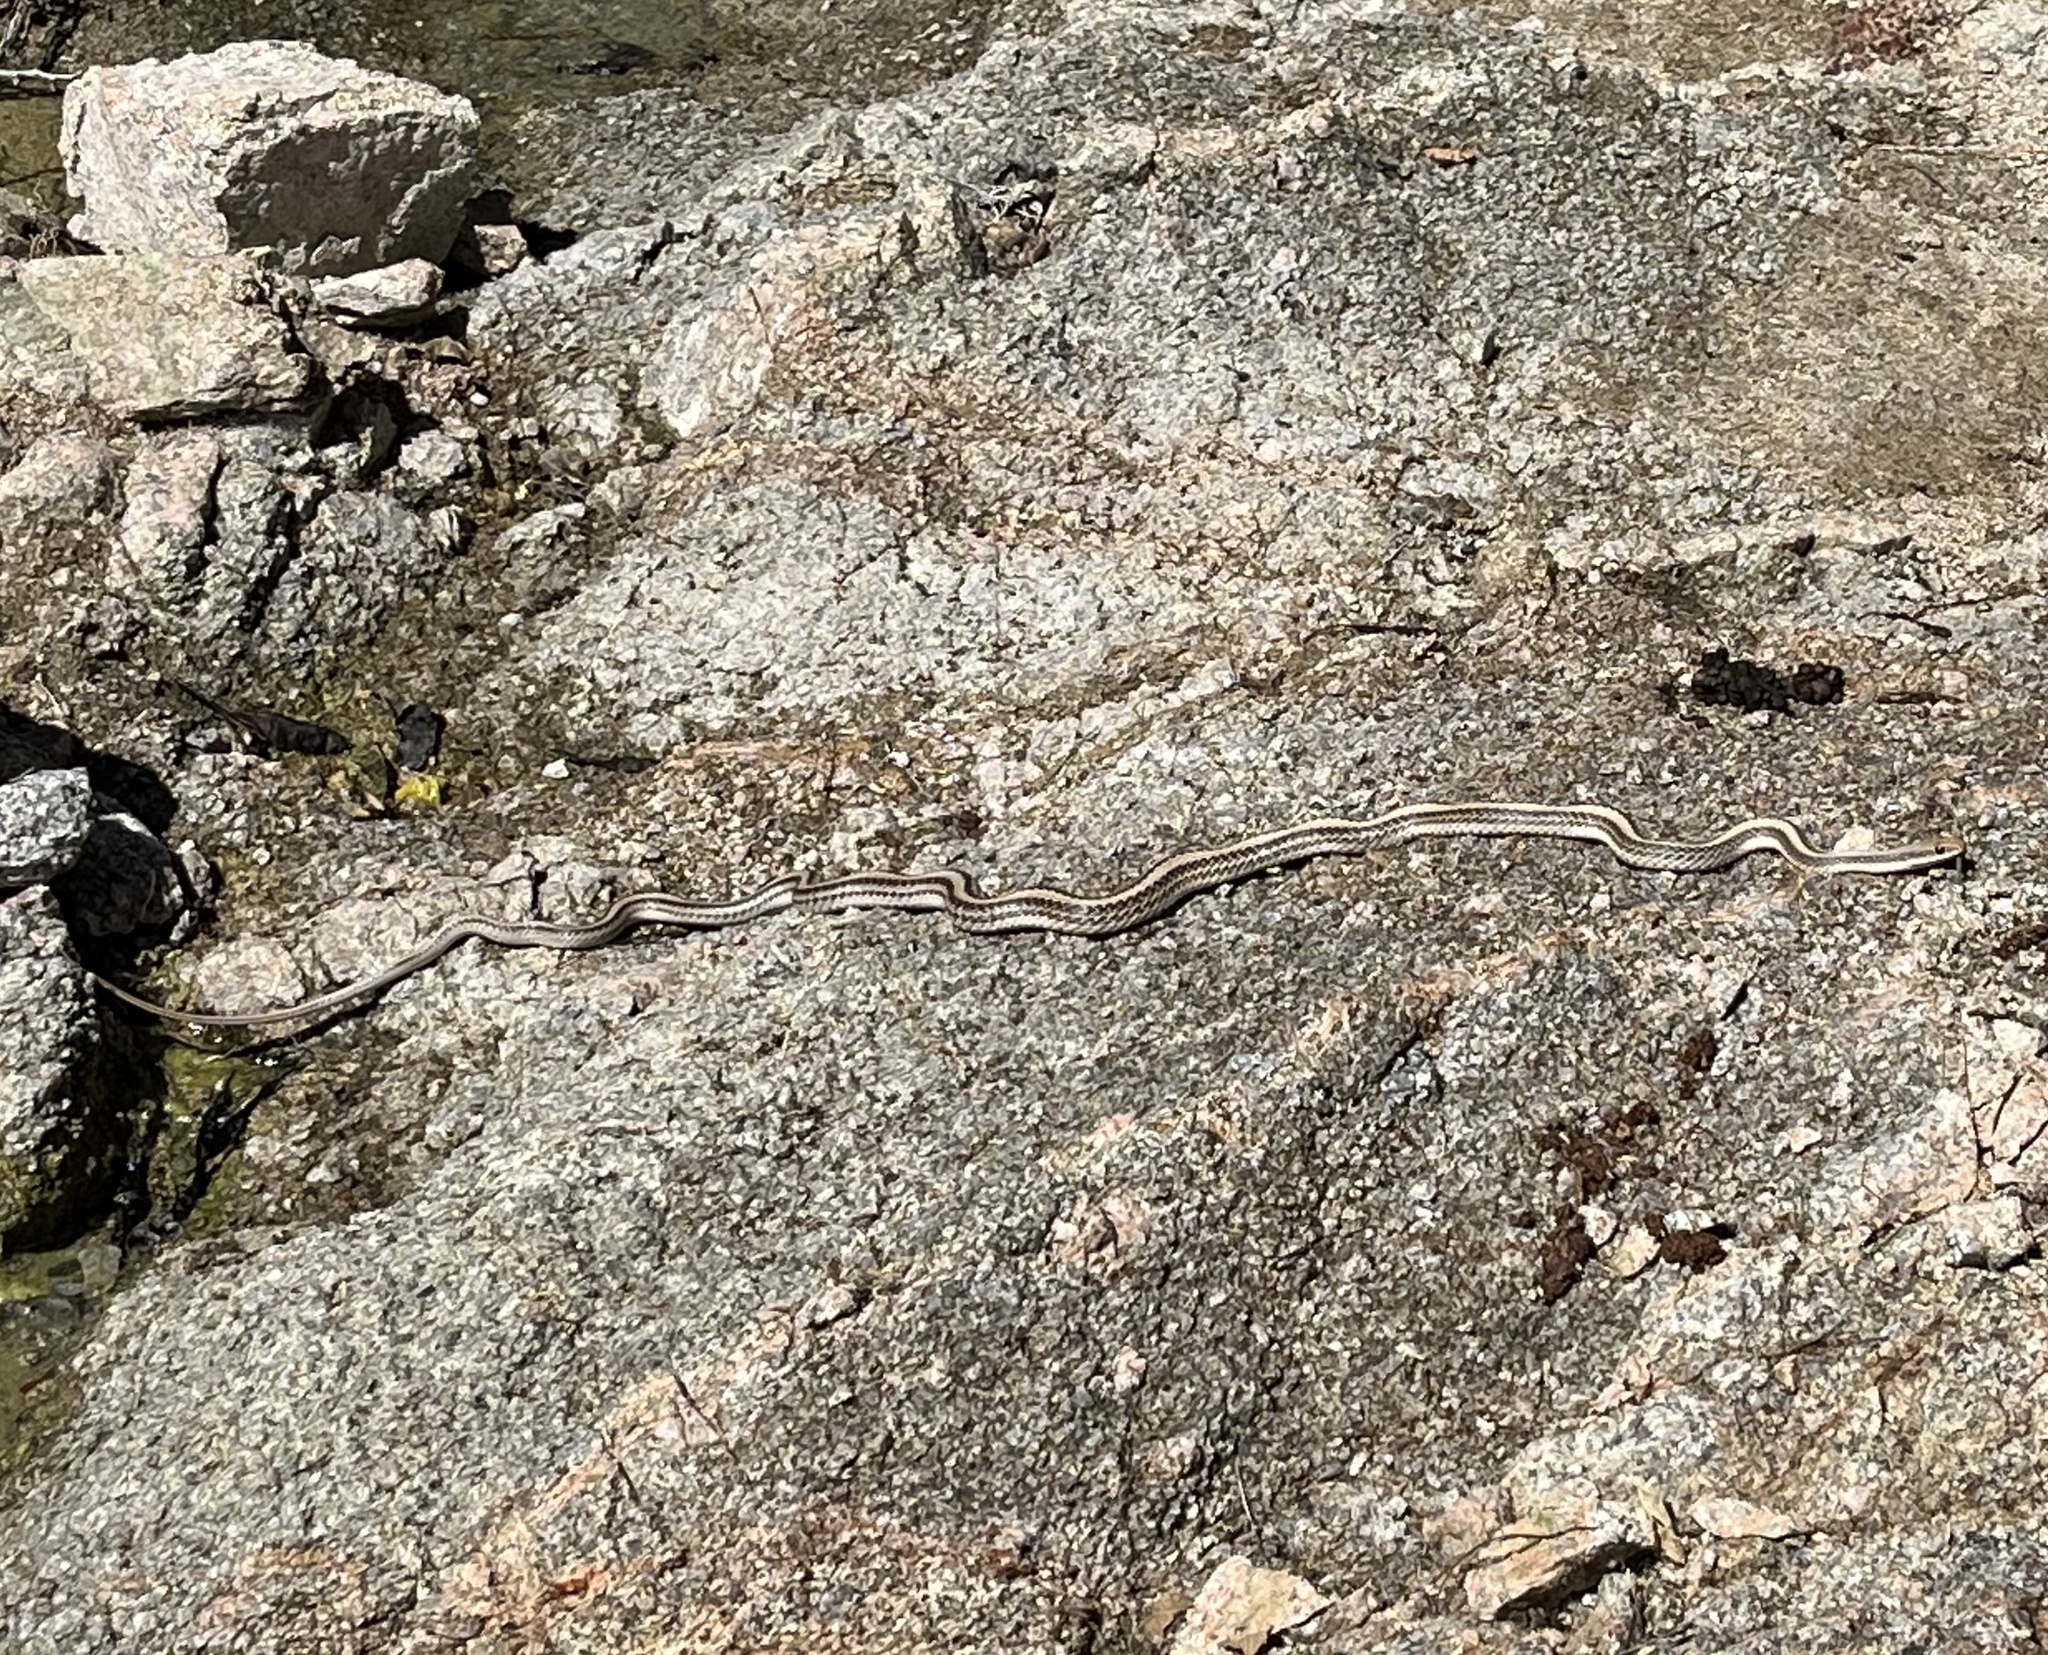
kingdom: Animalia
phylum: Chordata
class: Squamata
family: Colubridae
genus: Salvadora
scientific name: Salvadora hexalepis
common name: Western patchnose snake
